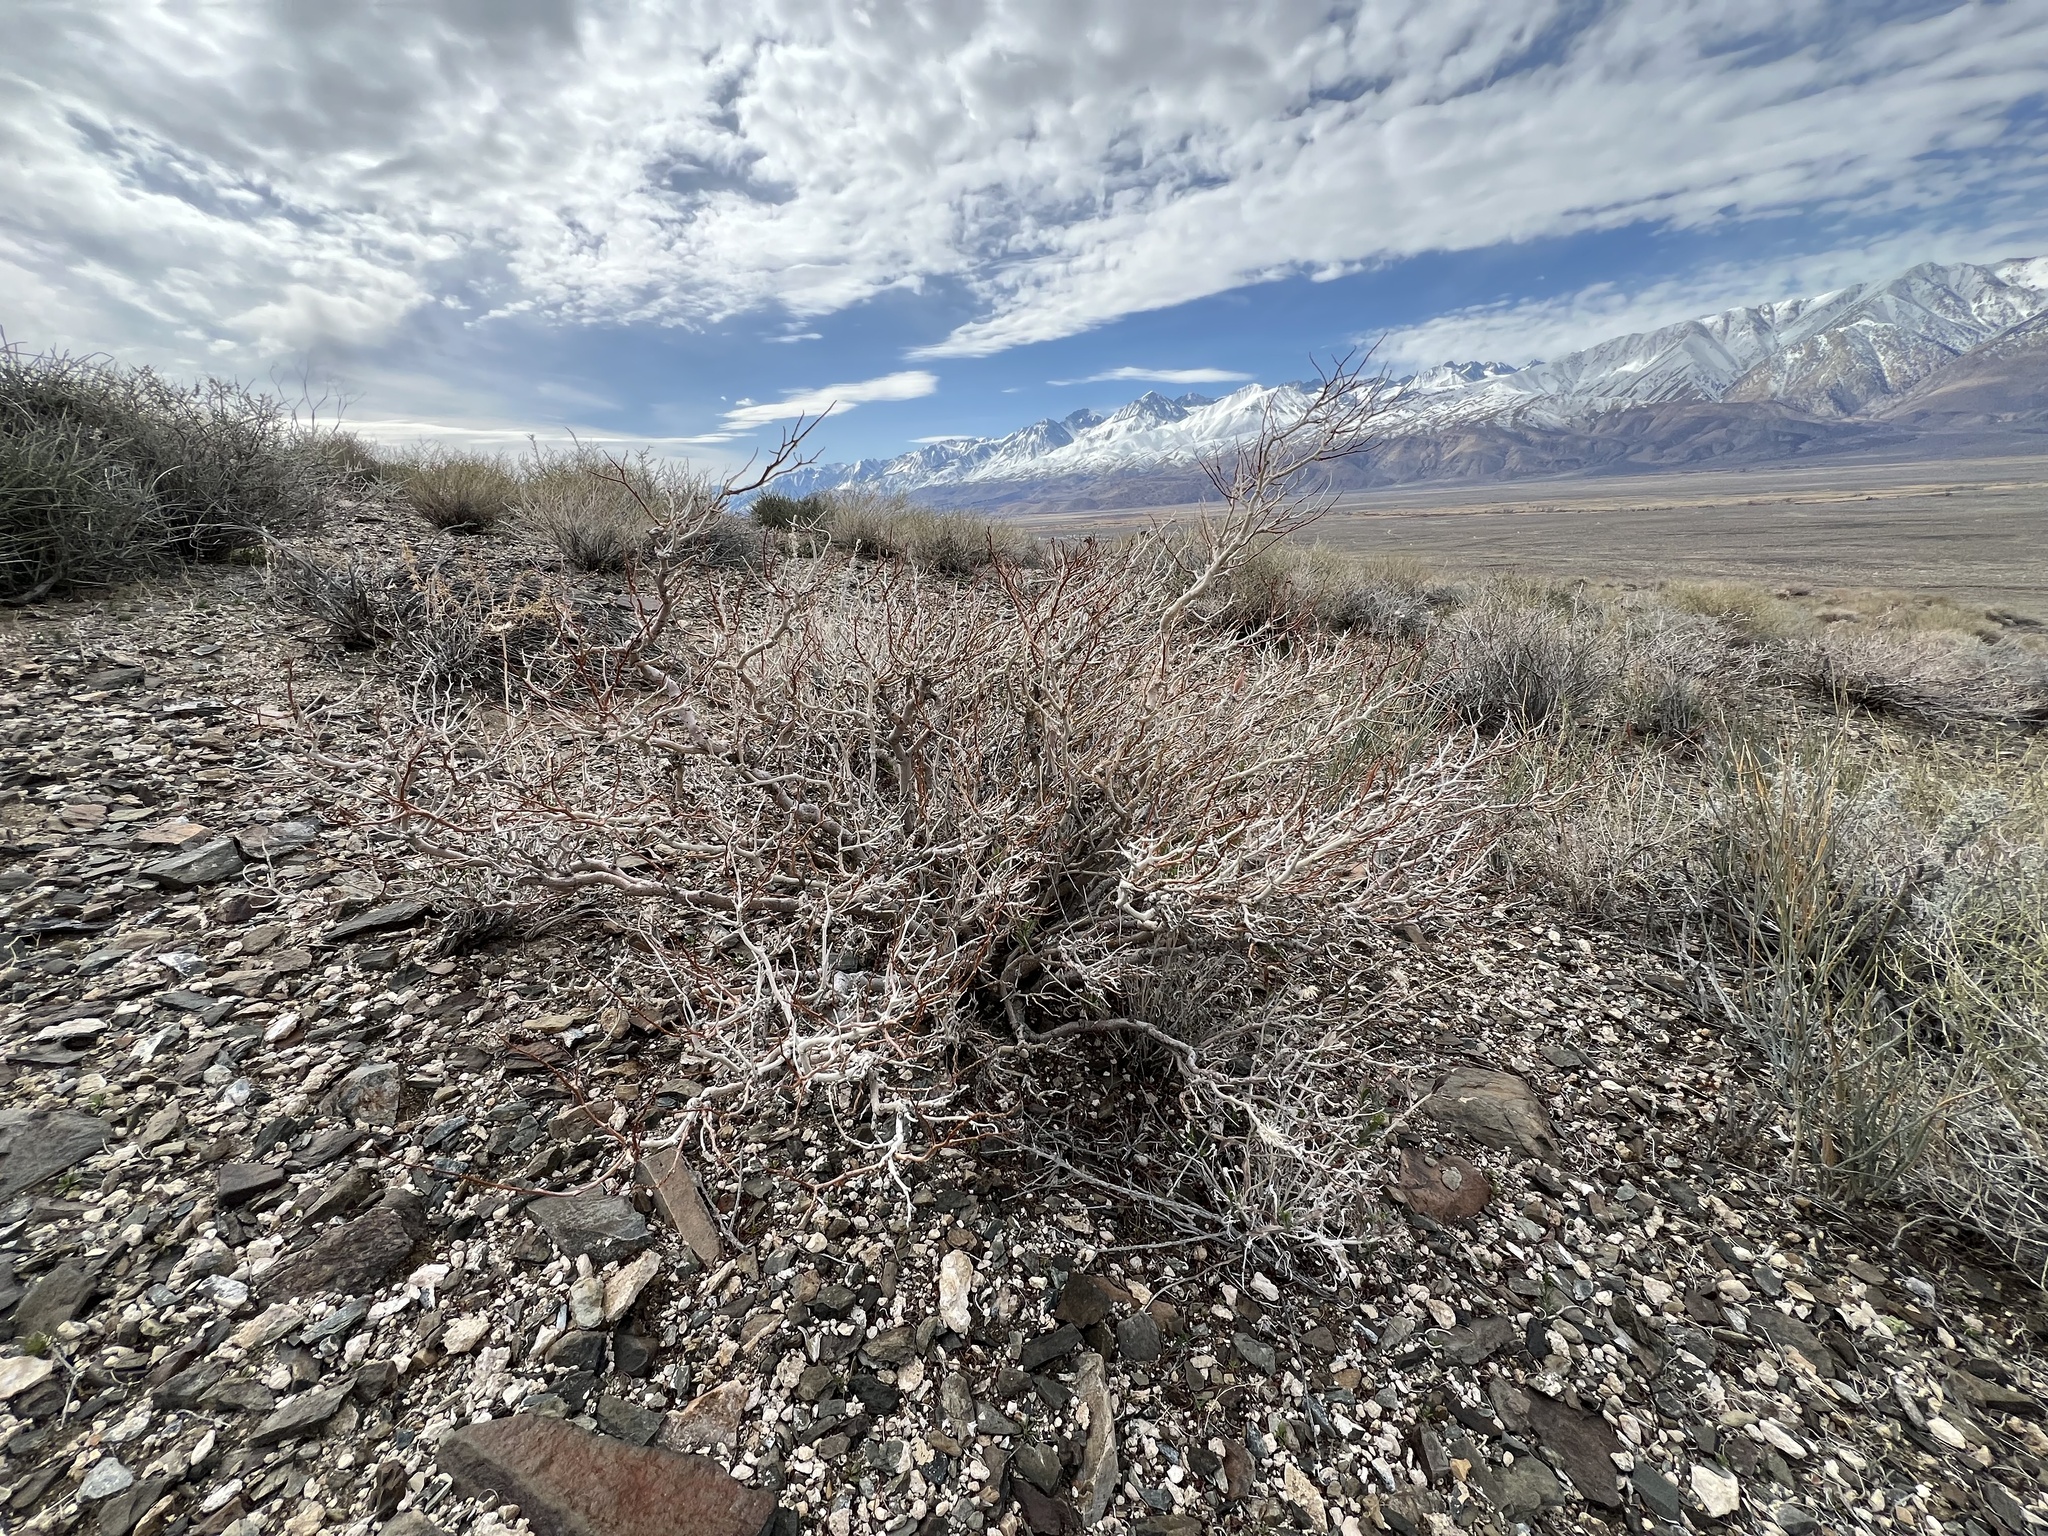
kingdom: Plantae
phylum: Tracheophyta
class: Magnoliopsida
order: Fabales
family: Fabaceae
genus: Psorothamnus
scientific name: Psorothamnus arborescens
